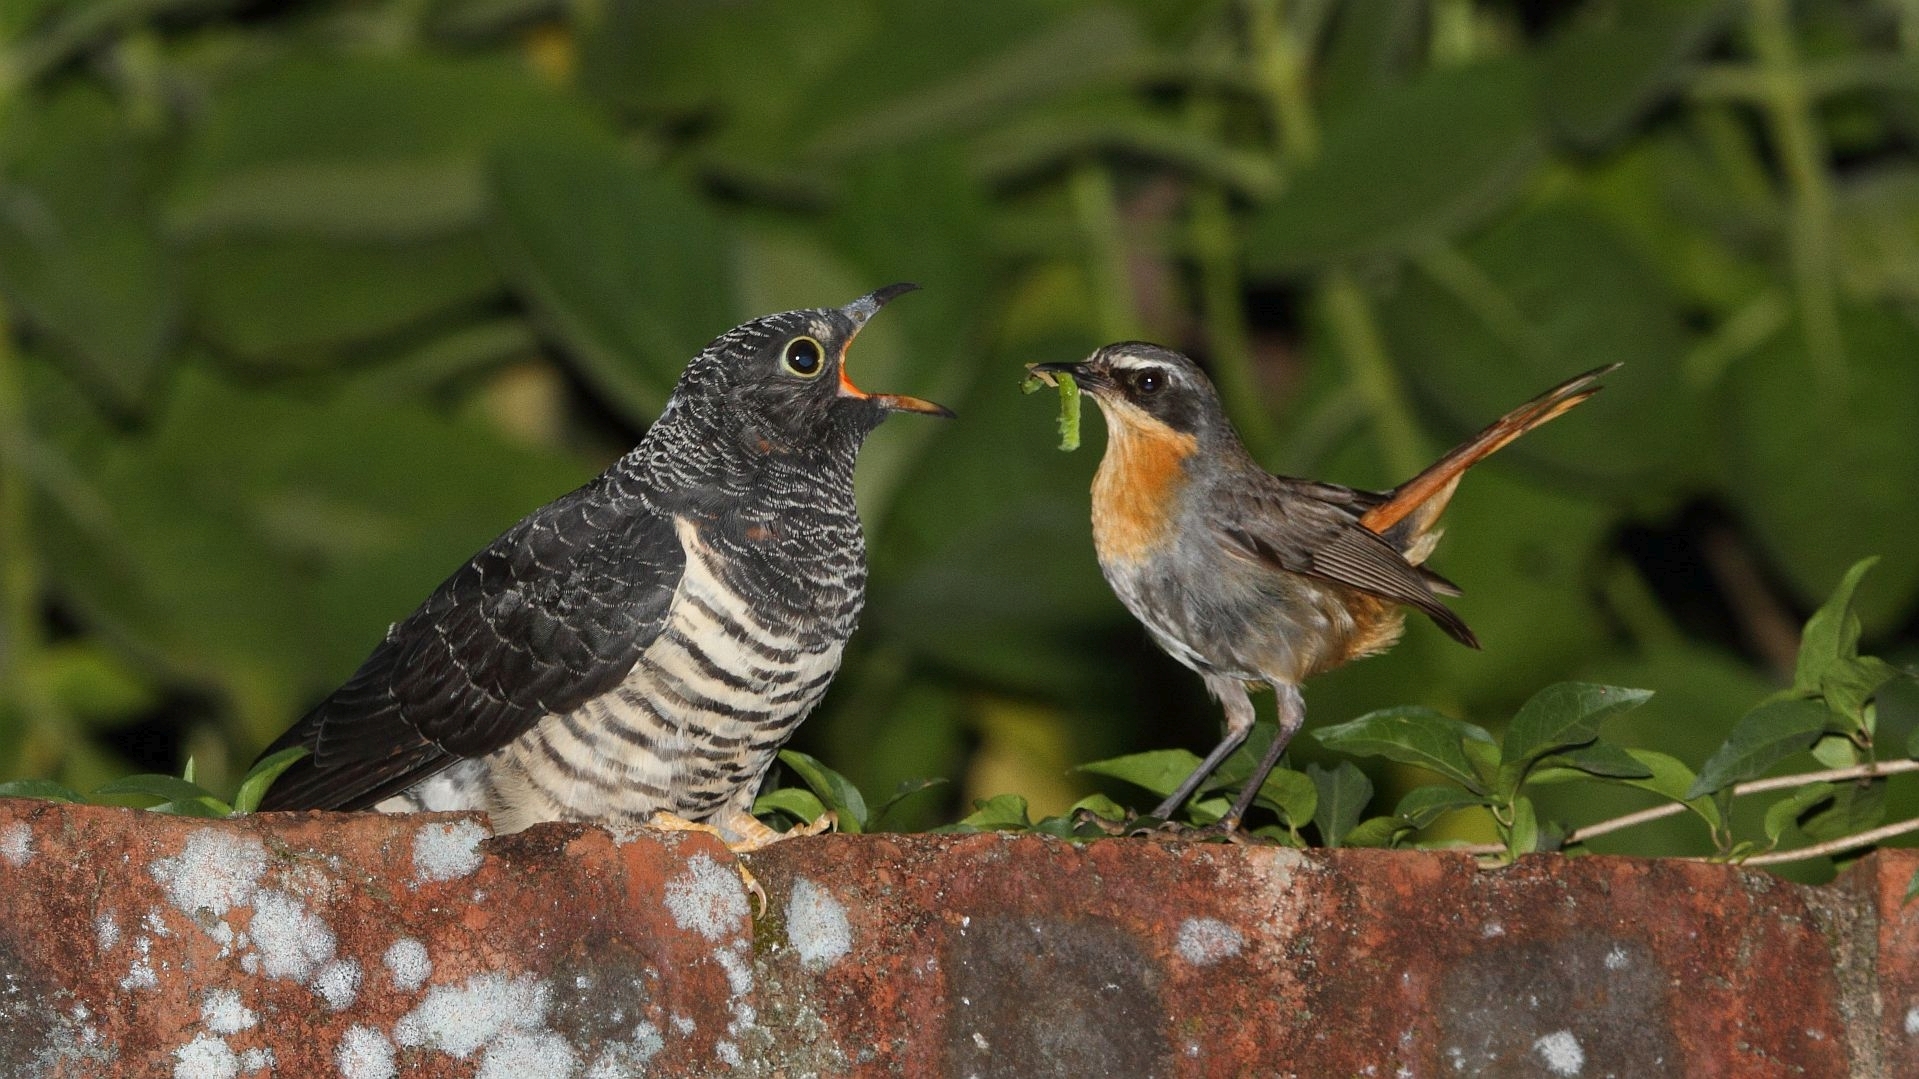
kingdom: Animalia
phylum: Chordata
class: Aves
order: Cuculiformes
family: Cuculidae
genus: Cuculus
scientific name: Cuculus solitarius
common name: Red-chested cuckoo
